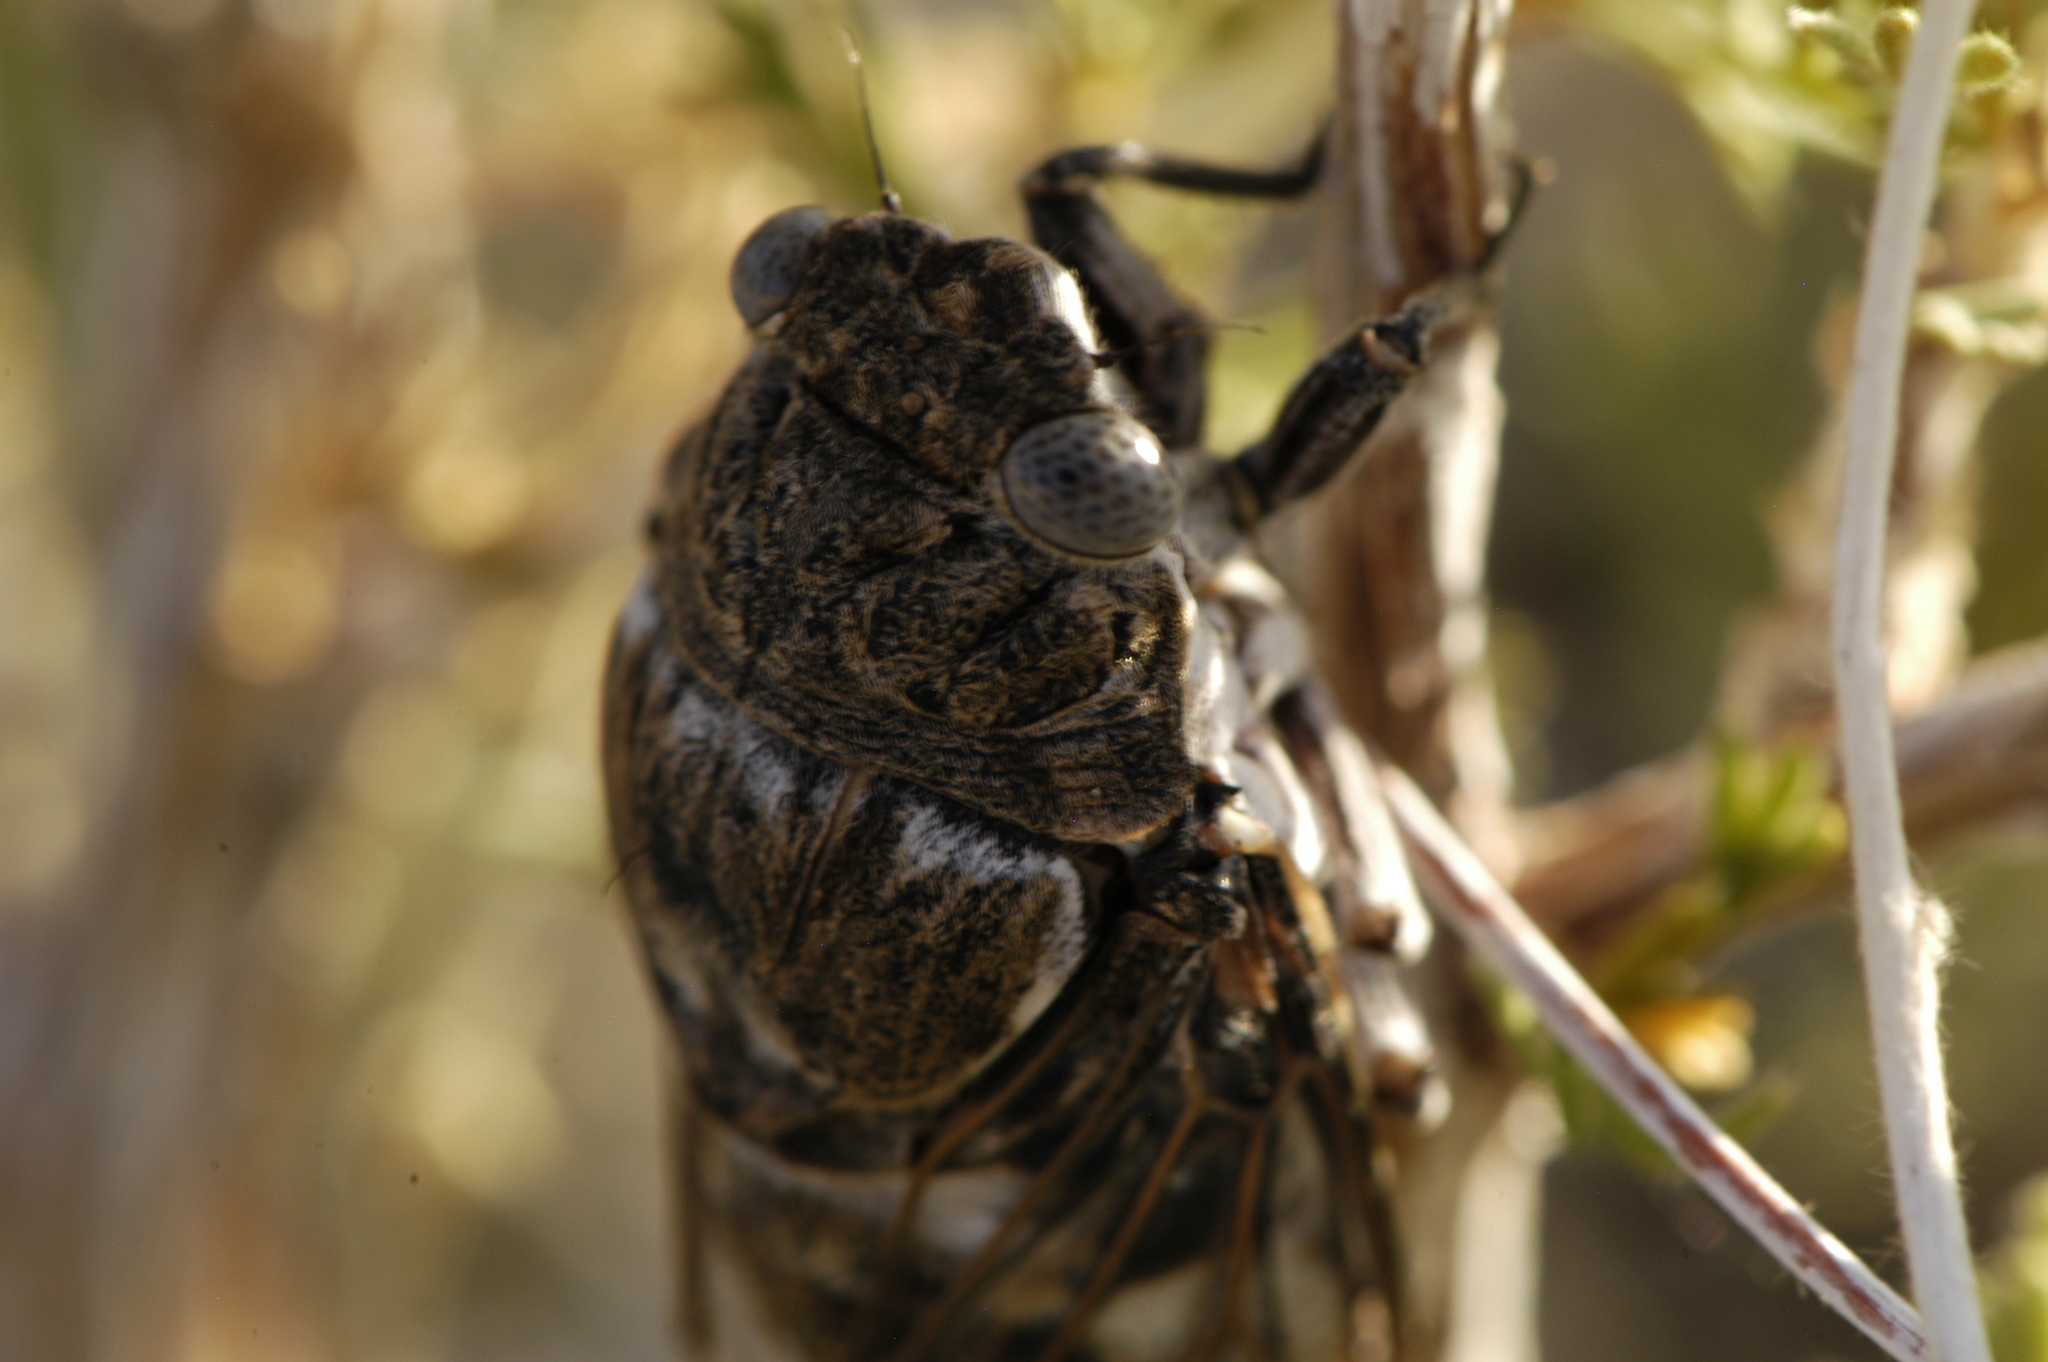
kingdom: Animalia
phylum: Arthropoda
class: Insecta
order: Hemiptera
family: Cicadidae
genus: Cacama
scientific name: Cacama valvata
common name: Cactus dodger
